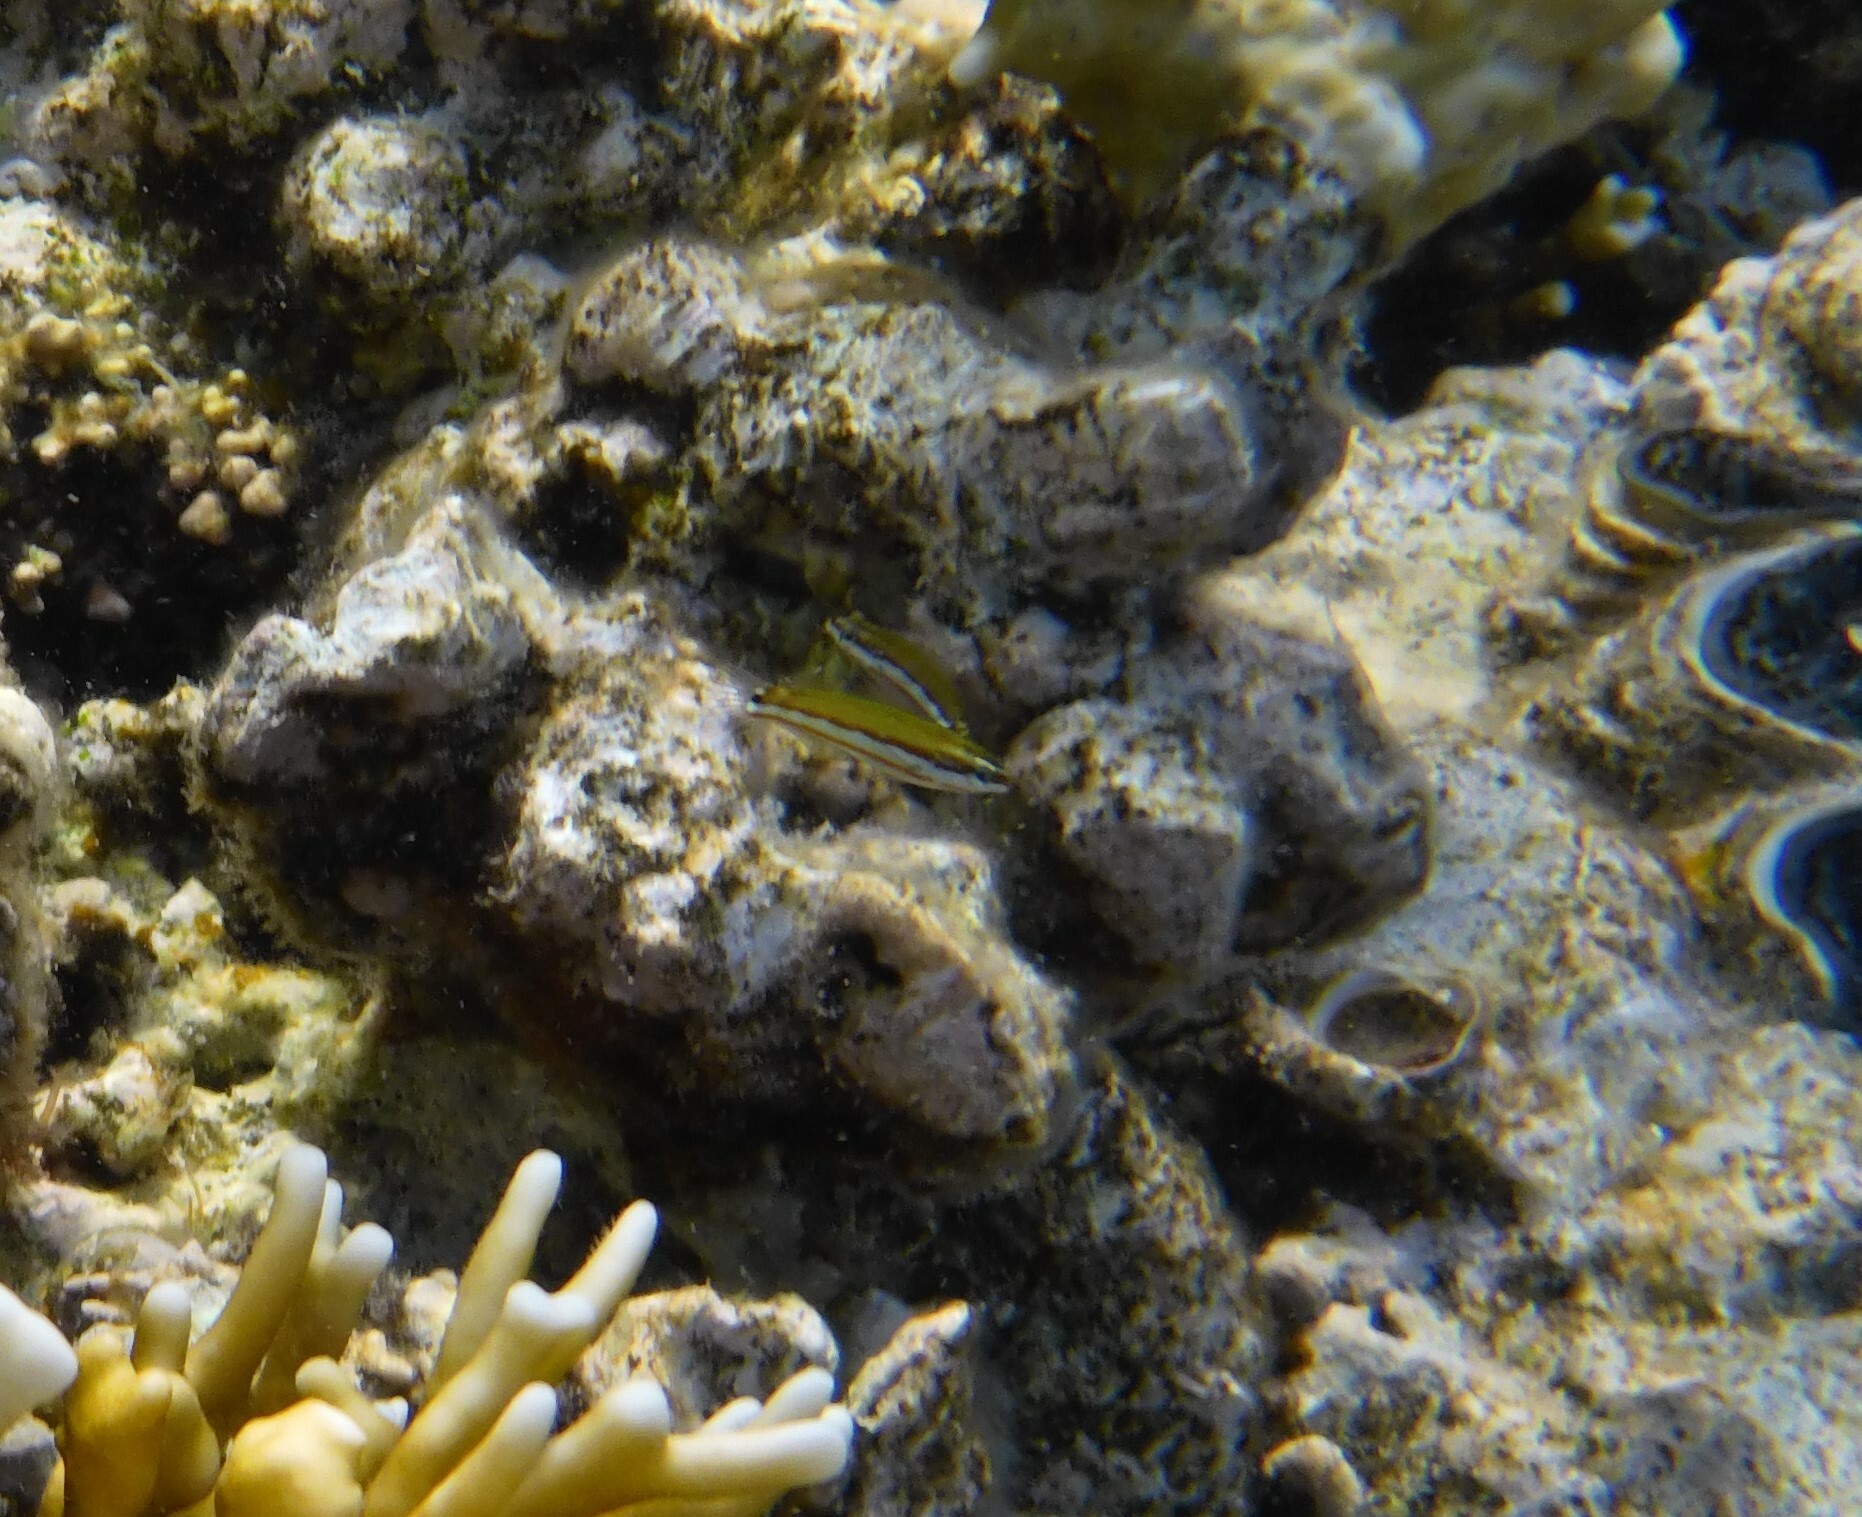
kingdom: Animalia
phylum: Chordata
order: Perciformes
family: Labridae
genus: Thalassoma
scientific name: Thalassoma rueppellii
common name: Klunzinger's wrasse
